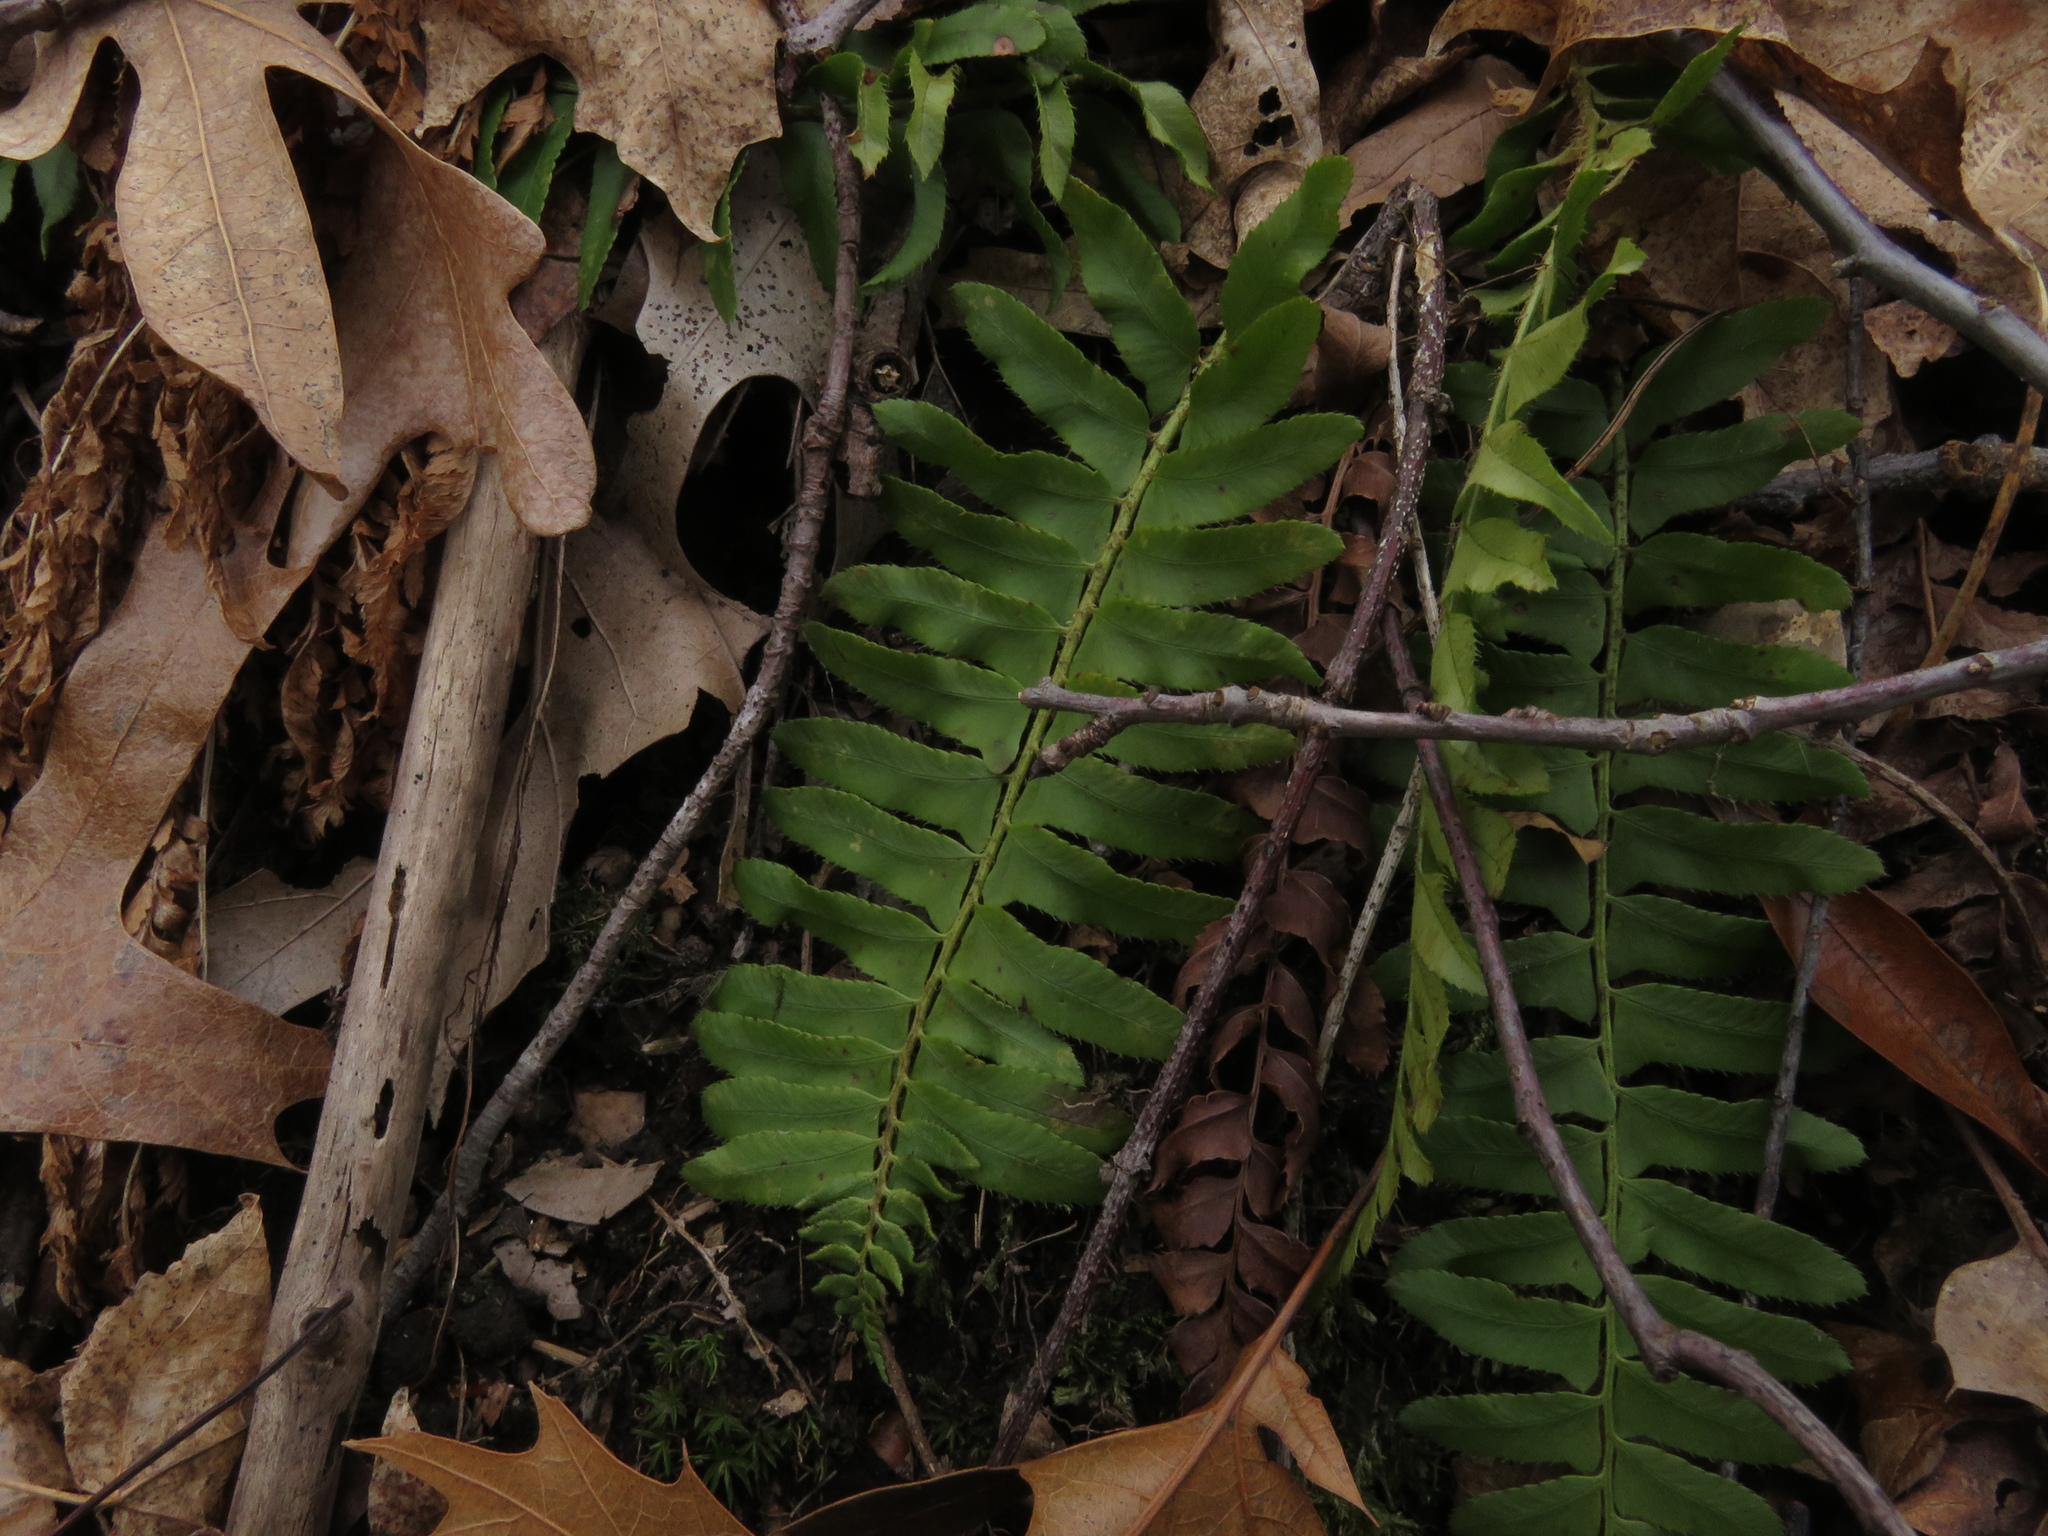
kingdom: Plantae
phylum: Tracheophyta
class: Polypodiopsida
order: Polypodiales
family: Dryopteridaceae
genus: Polystichum
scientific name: Polystichum acrostichoides
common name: Christmas fern
